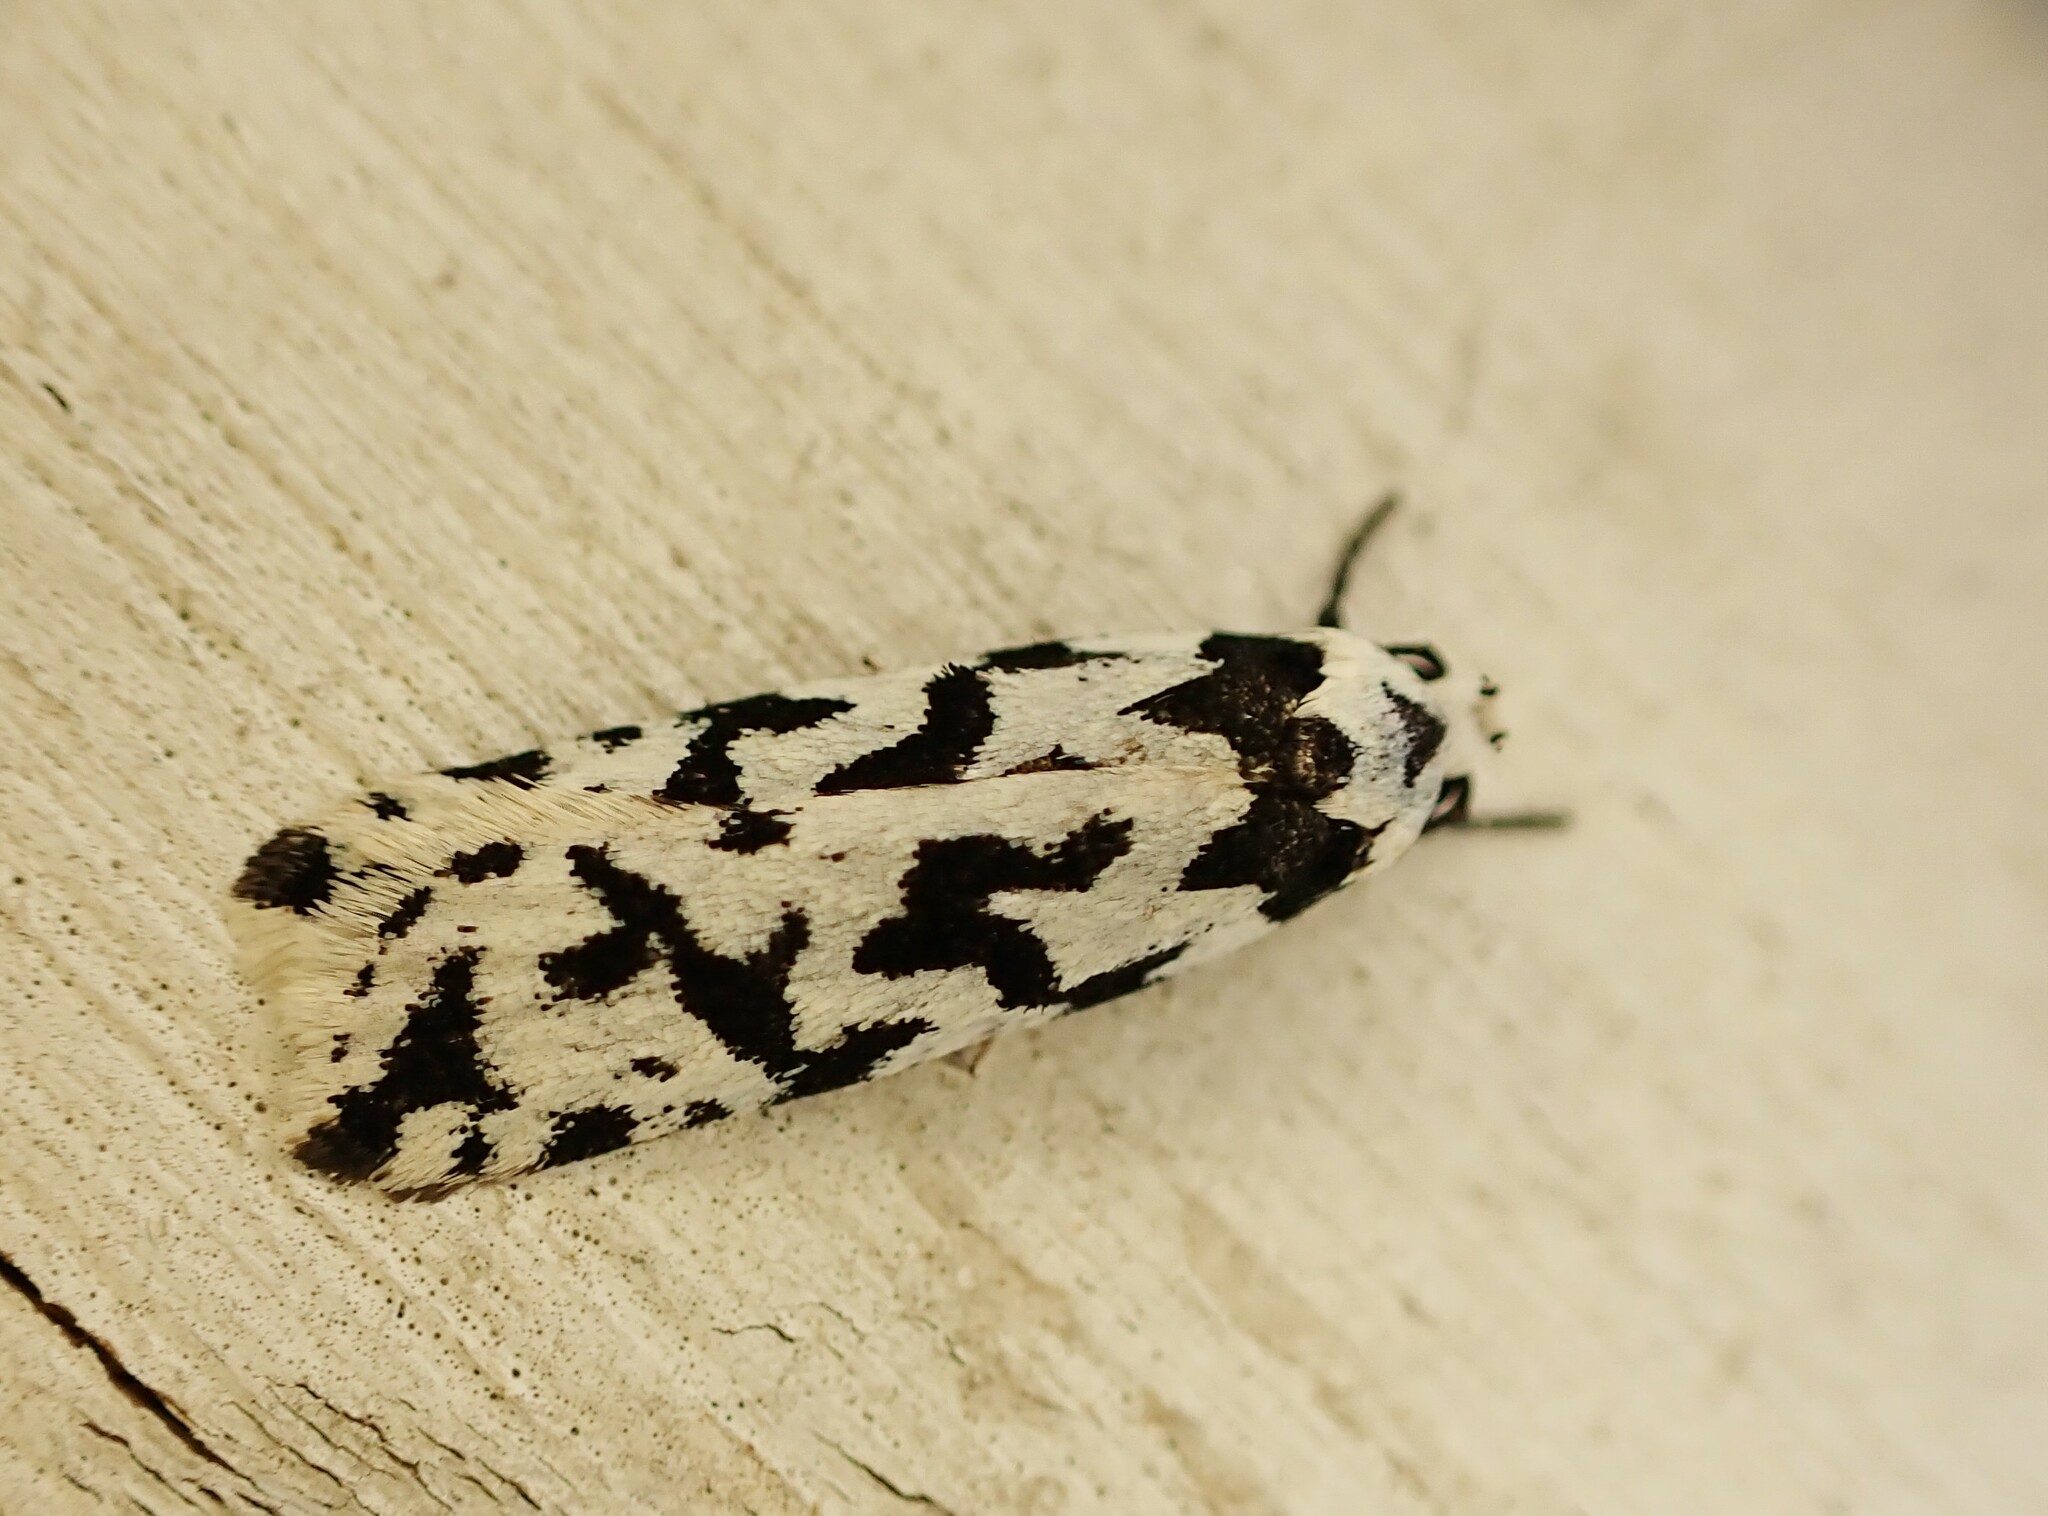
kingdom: Animalia
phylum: Arthropoda
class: Insecta
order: Lepidoptera
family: Oecophoridae
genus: Izatha
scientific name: Izatha acmonias
